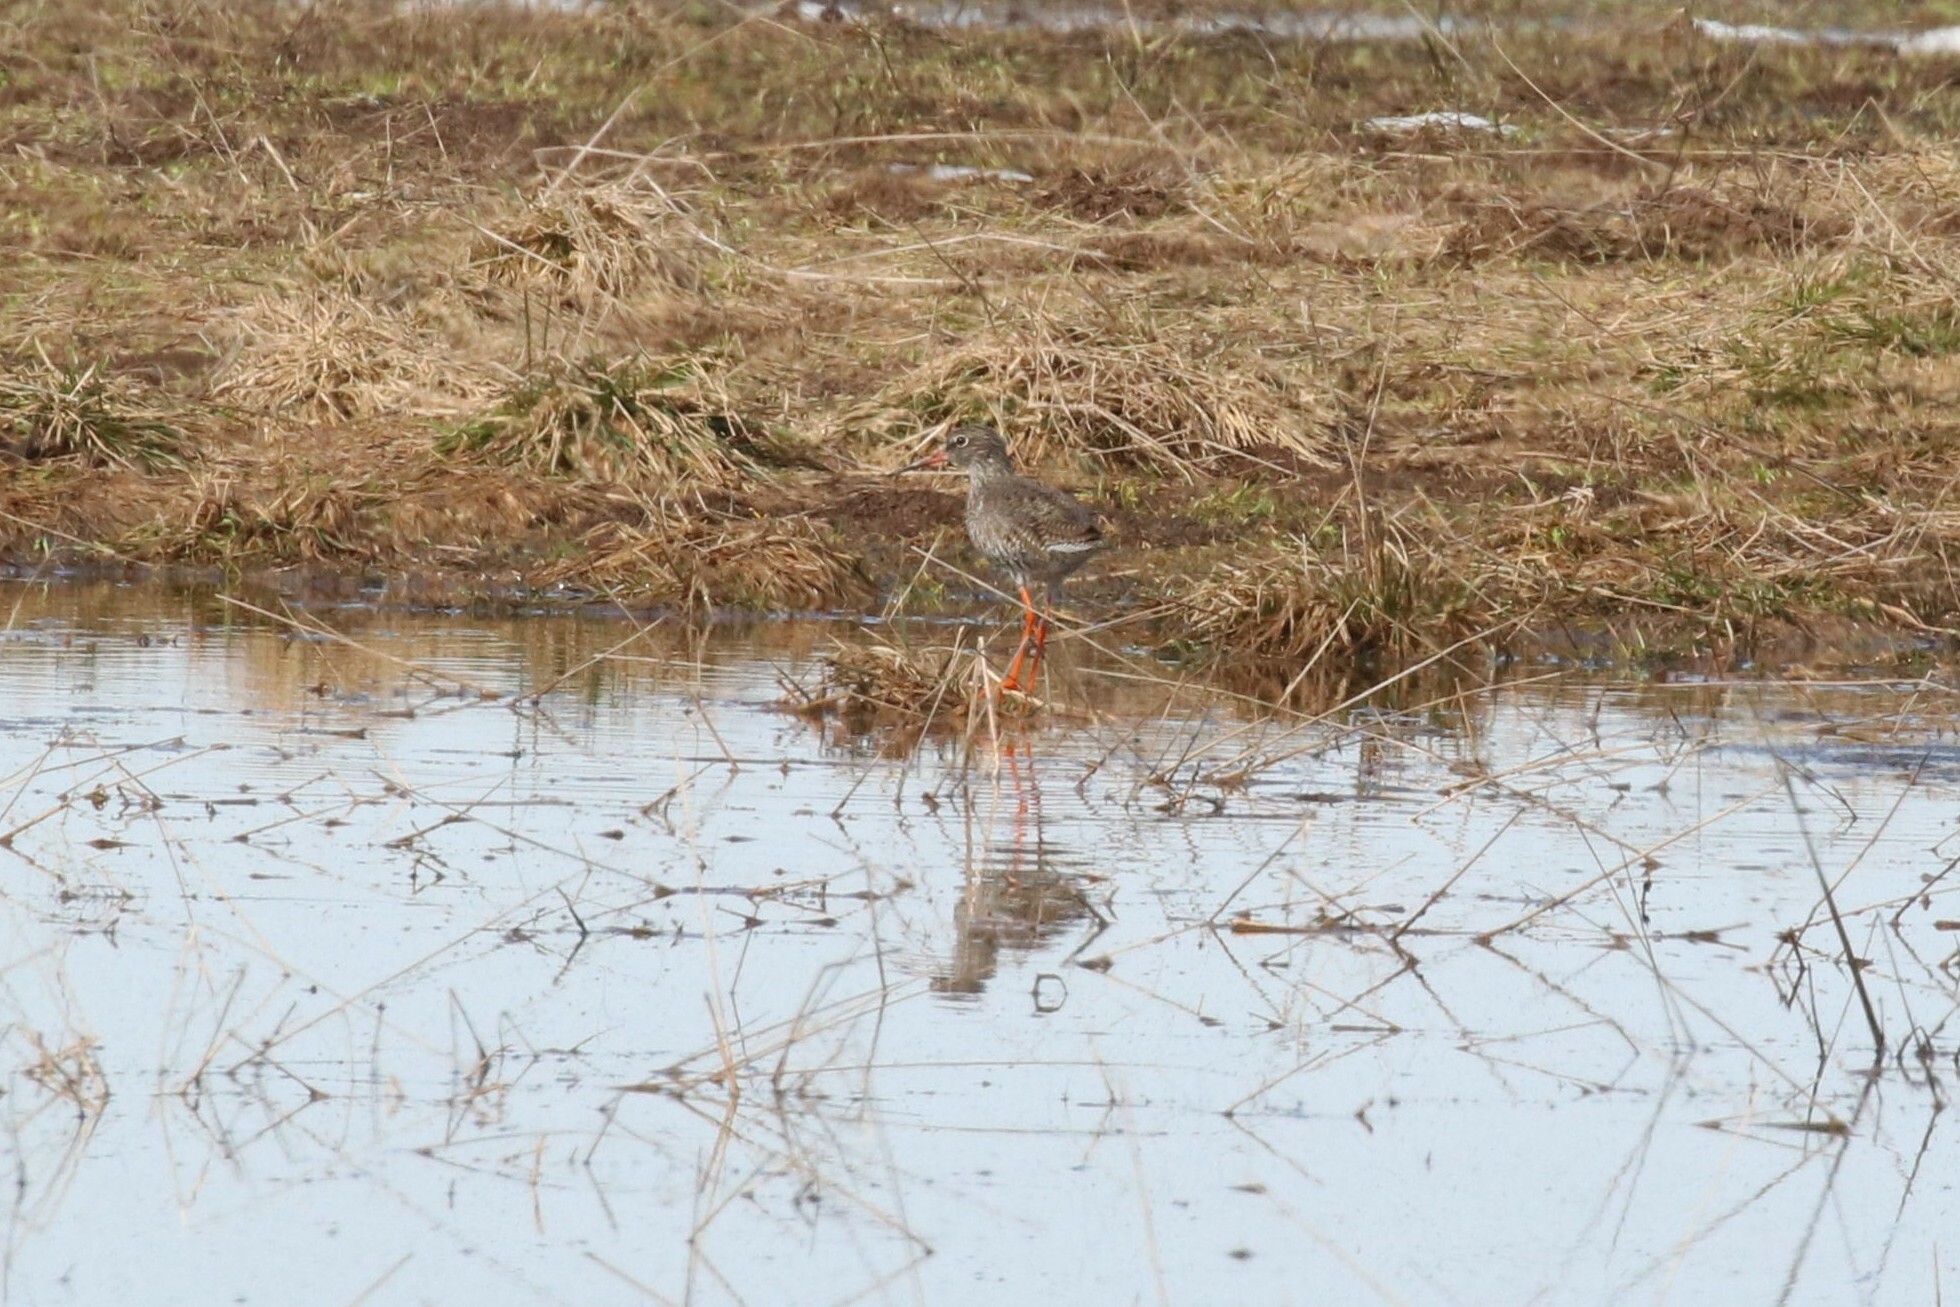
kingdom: Animalia
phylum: Chordata
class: Aves
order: Charadriiformes
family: Scolopacidae
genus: Tringa
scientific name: Tringa totanus
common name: Common redshank
